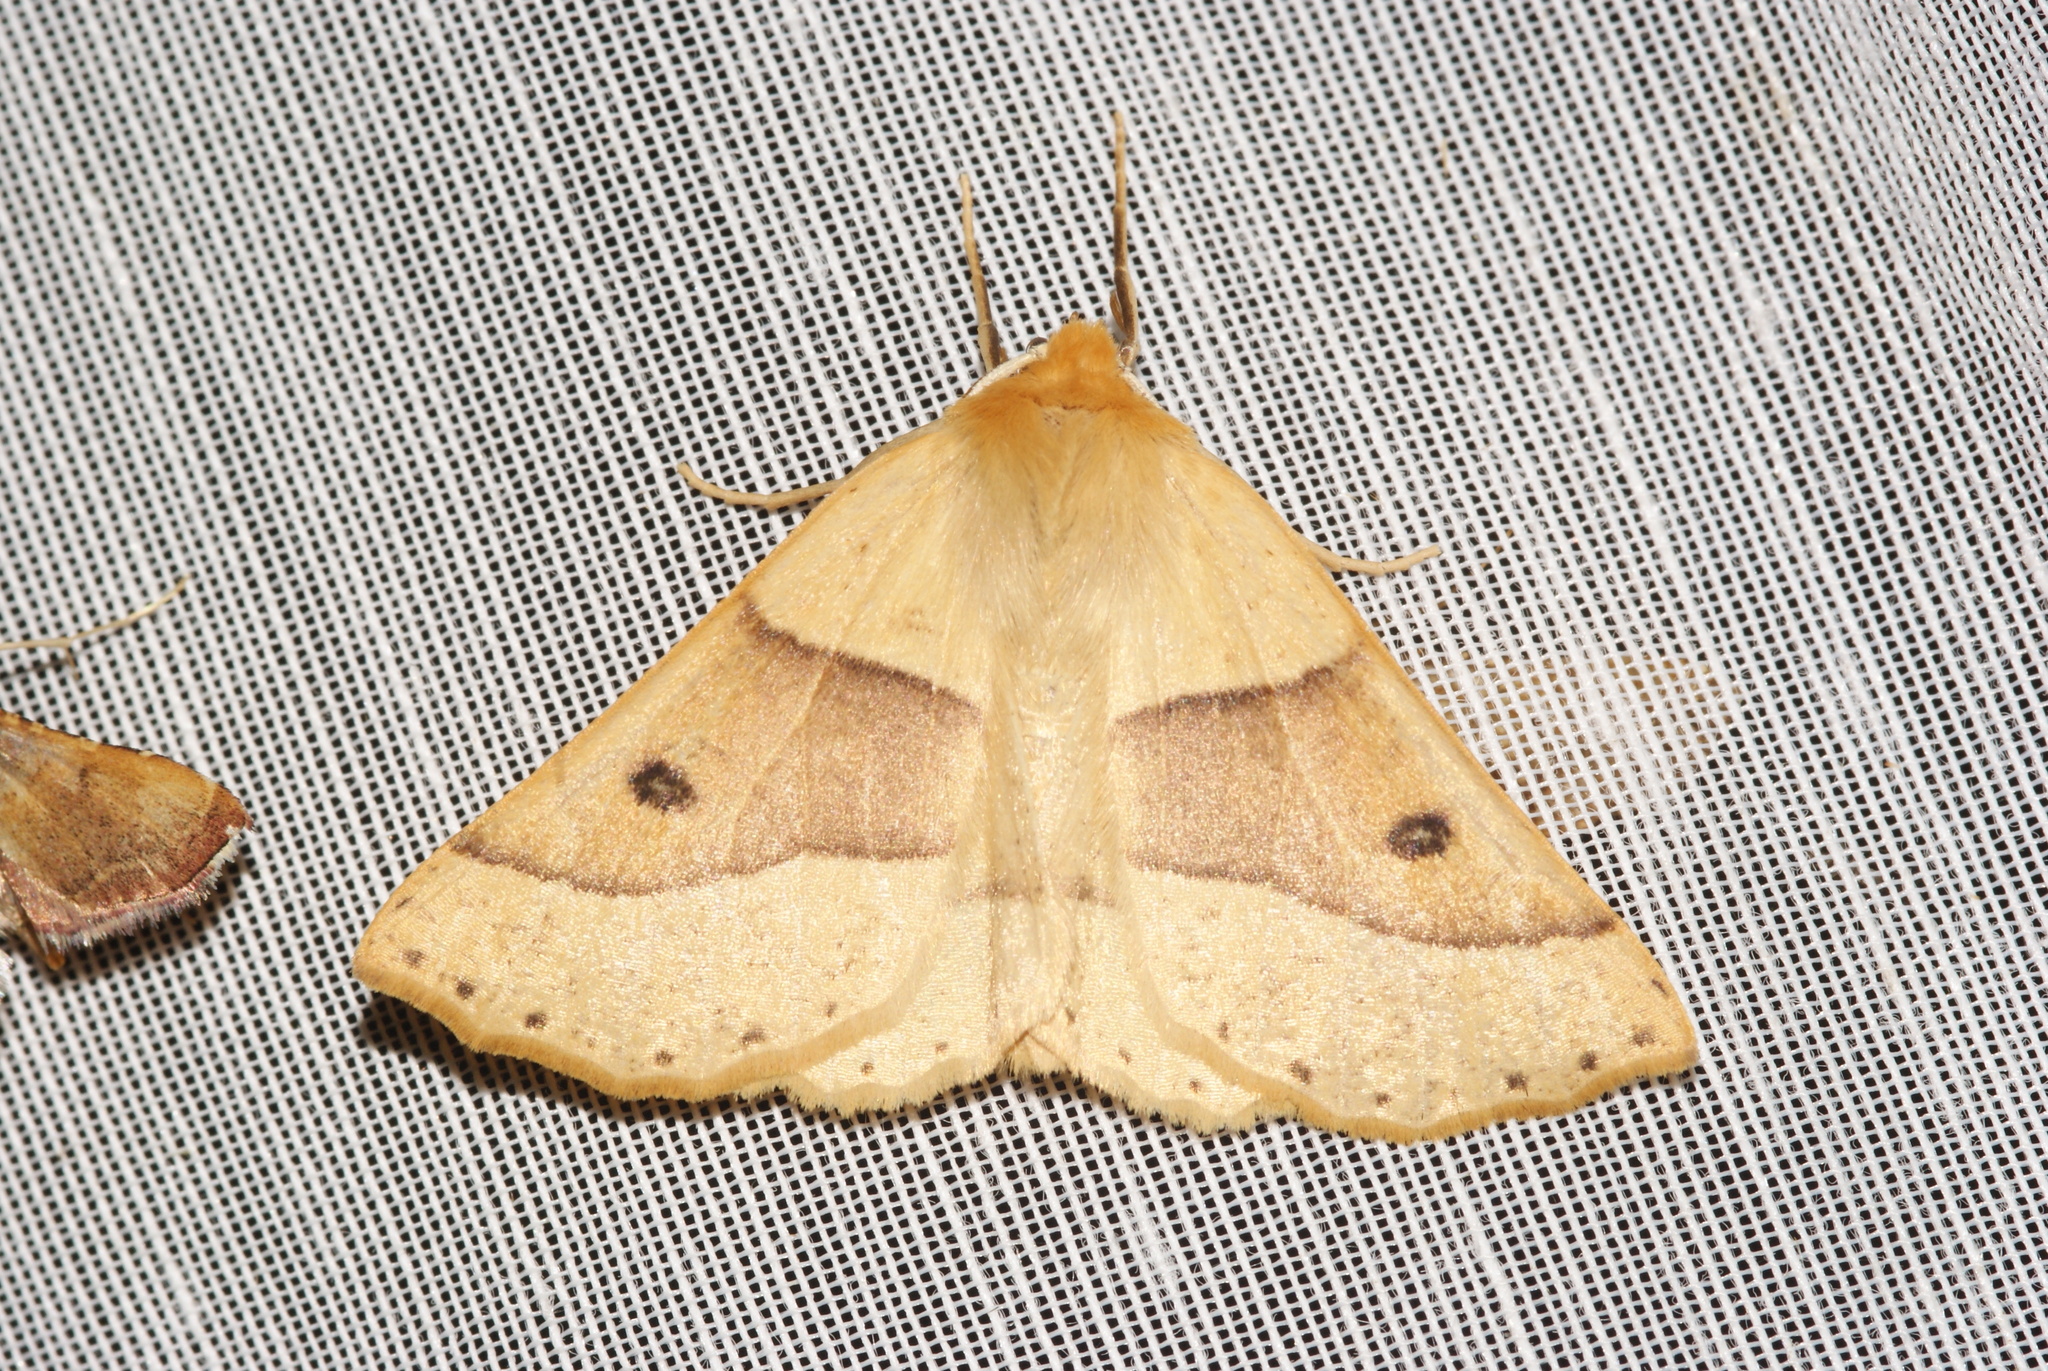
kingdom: Animalia
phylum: Arthropoda
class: Insecta
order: Lepidoptera
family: Geometridae
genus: Crocallis
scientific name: Crocallis elinguaria
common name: Scalloped oak
